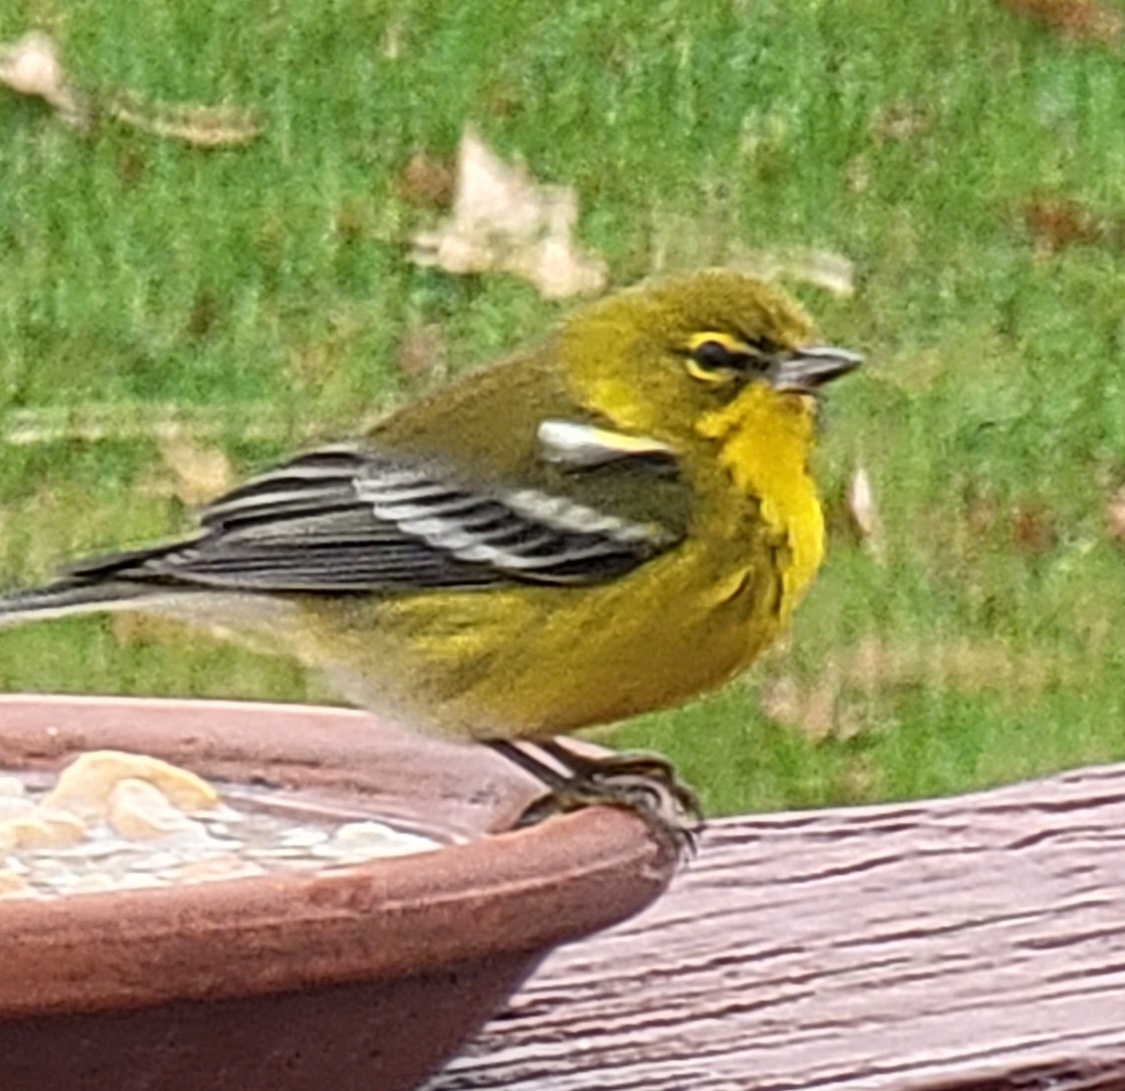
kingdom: Animalia
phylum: Chordata
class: Aves
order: Passeriformes
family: Parulidae
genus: Setophaga
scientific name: Setophaga pinus
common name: Pine warbler
